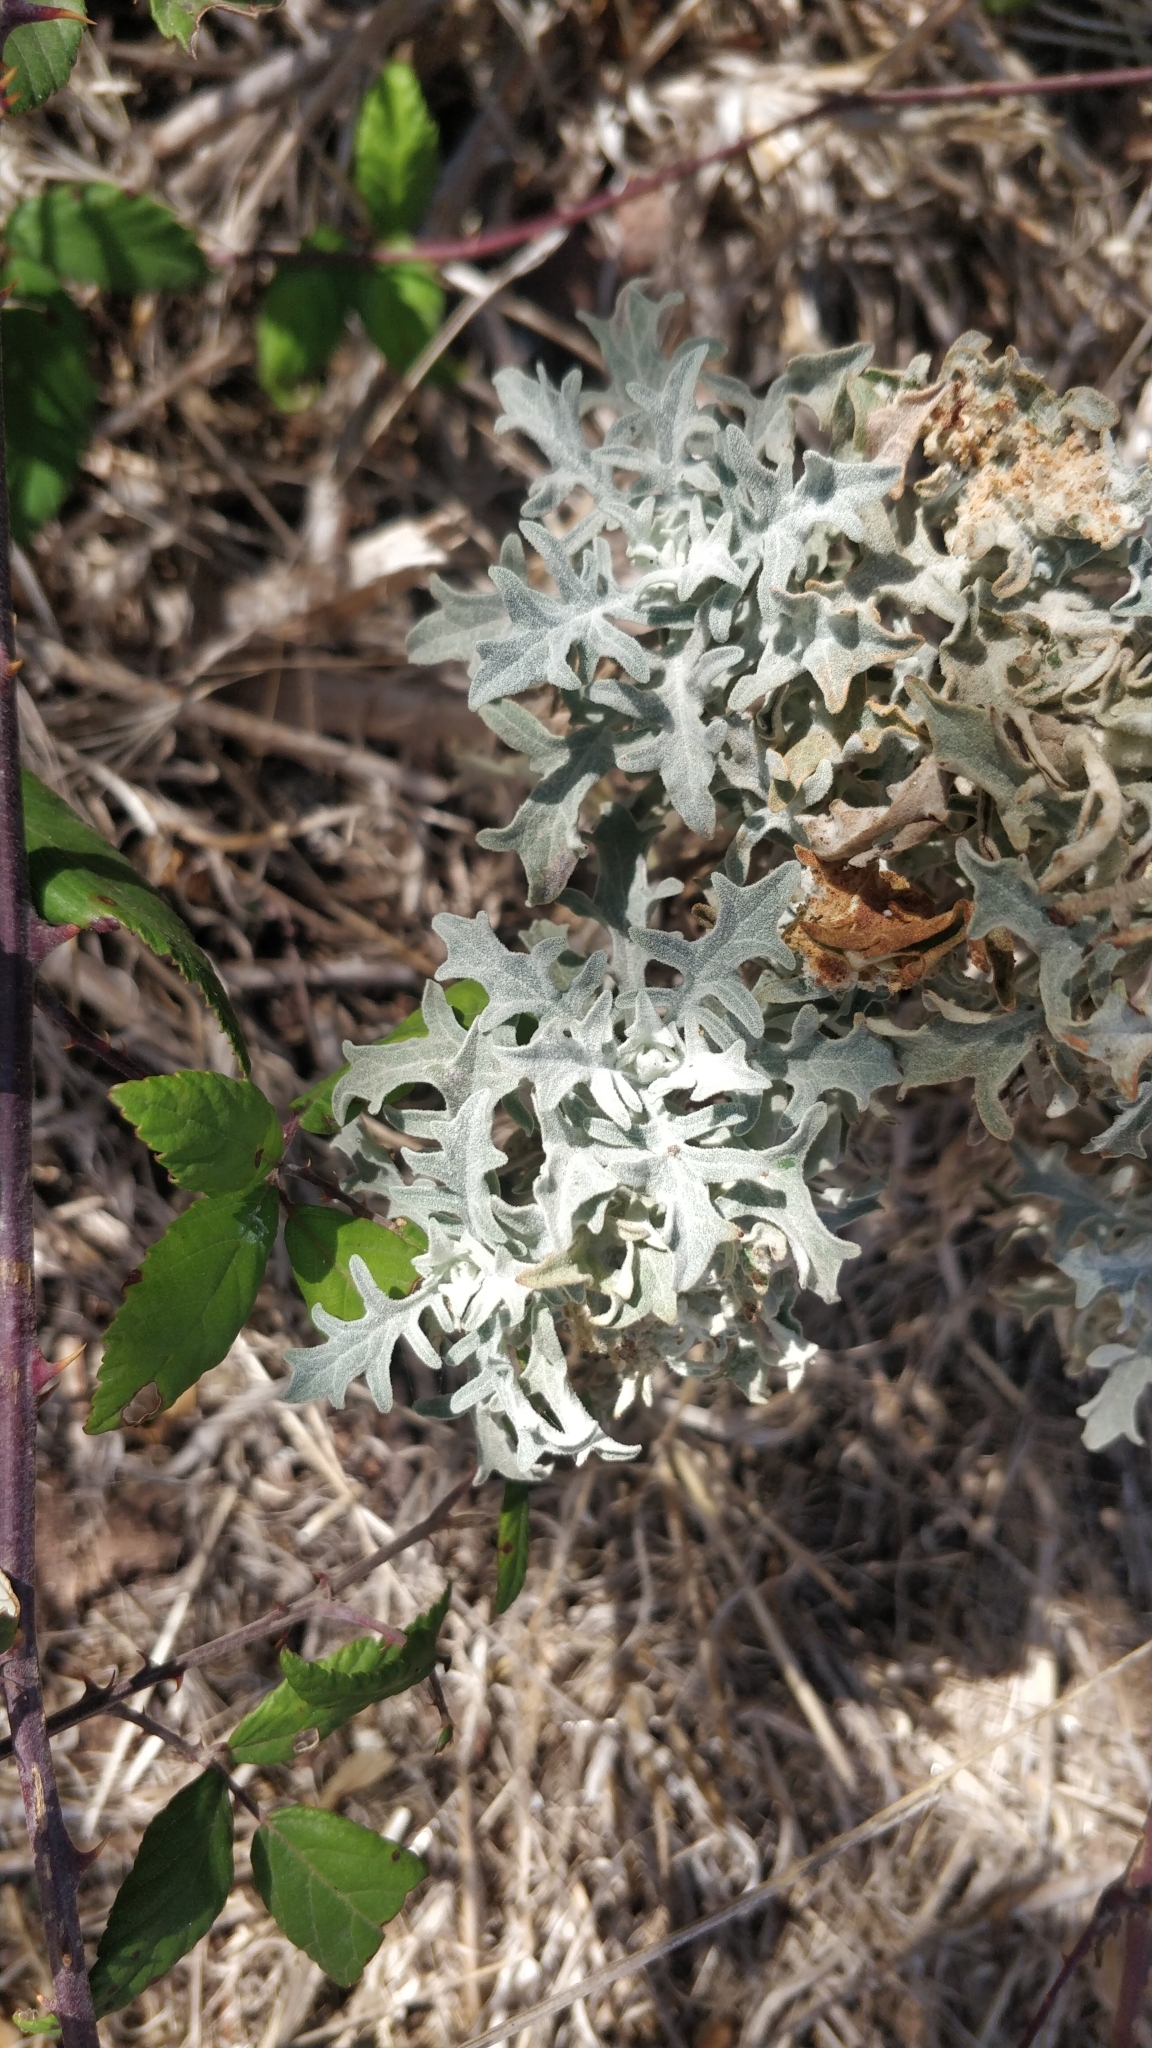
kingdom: Plantae
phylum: Tracheophyta
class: Magnoliopsida
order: Asterales
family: Asteraceae
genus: Andryala
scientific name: Andryala pinnatifida
